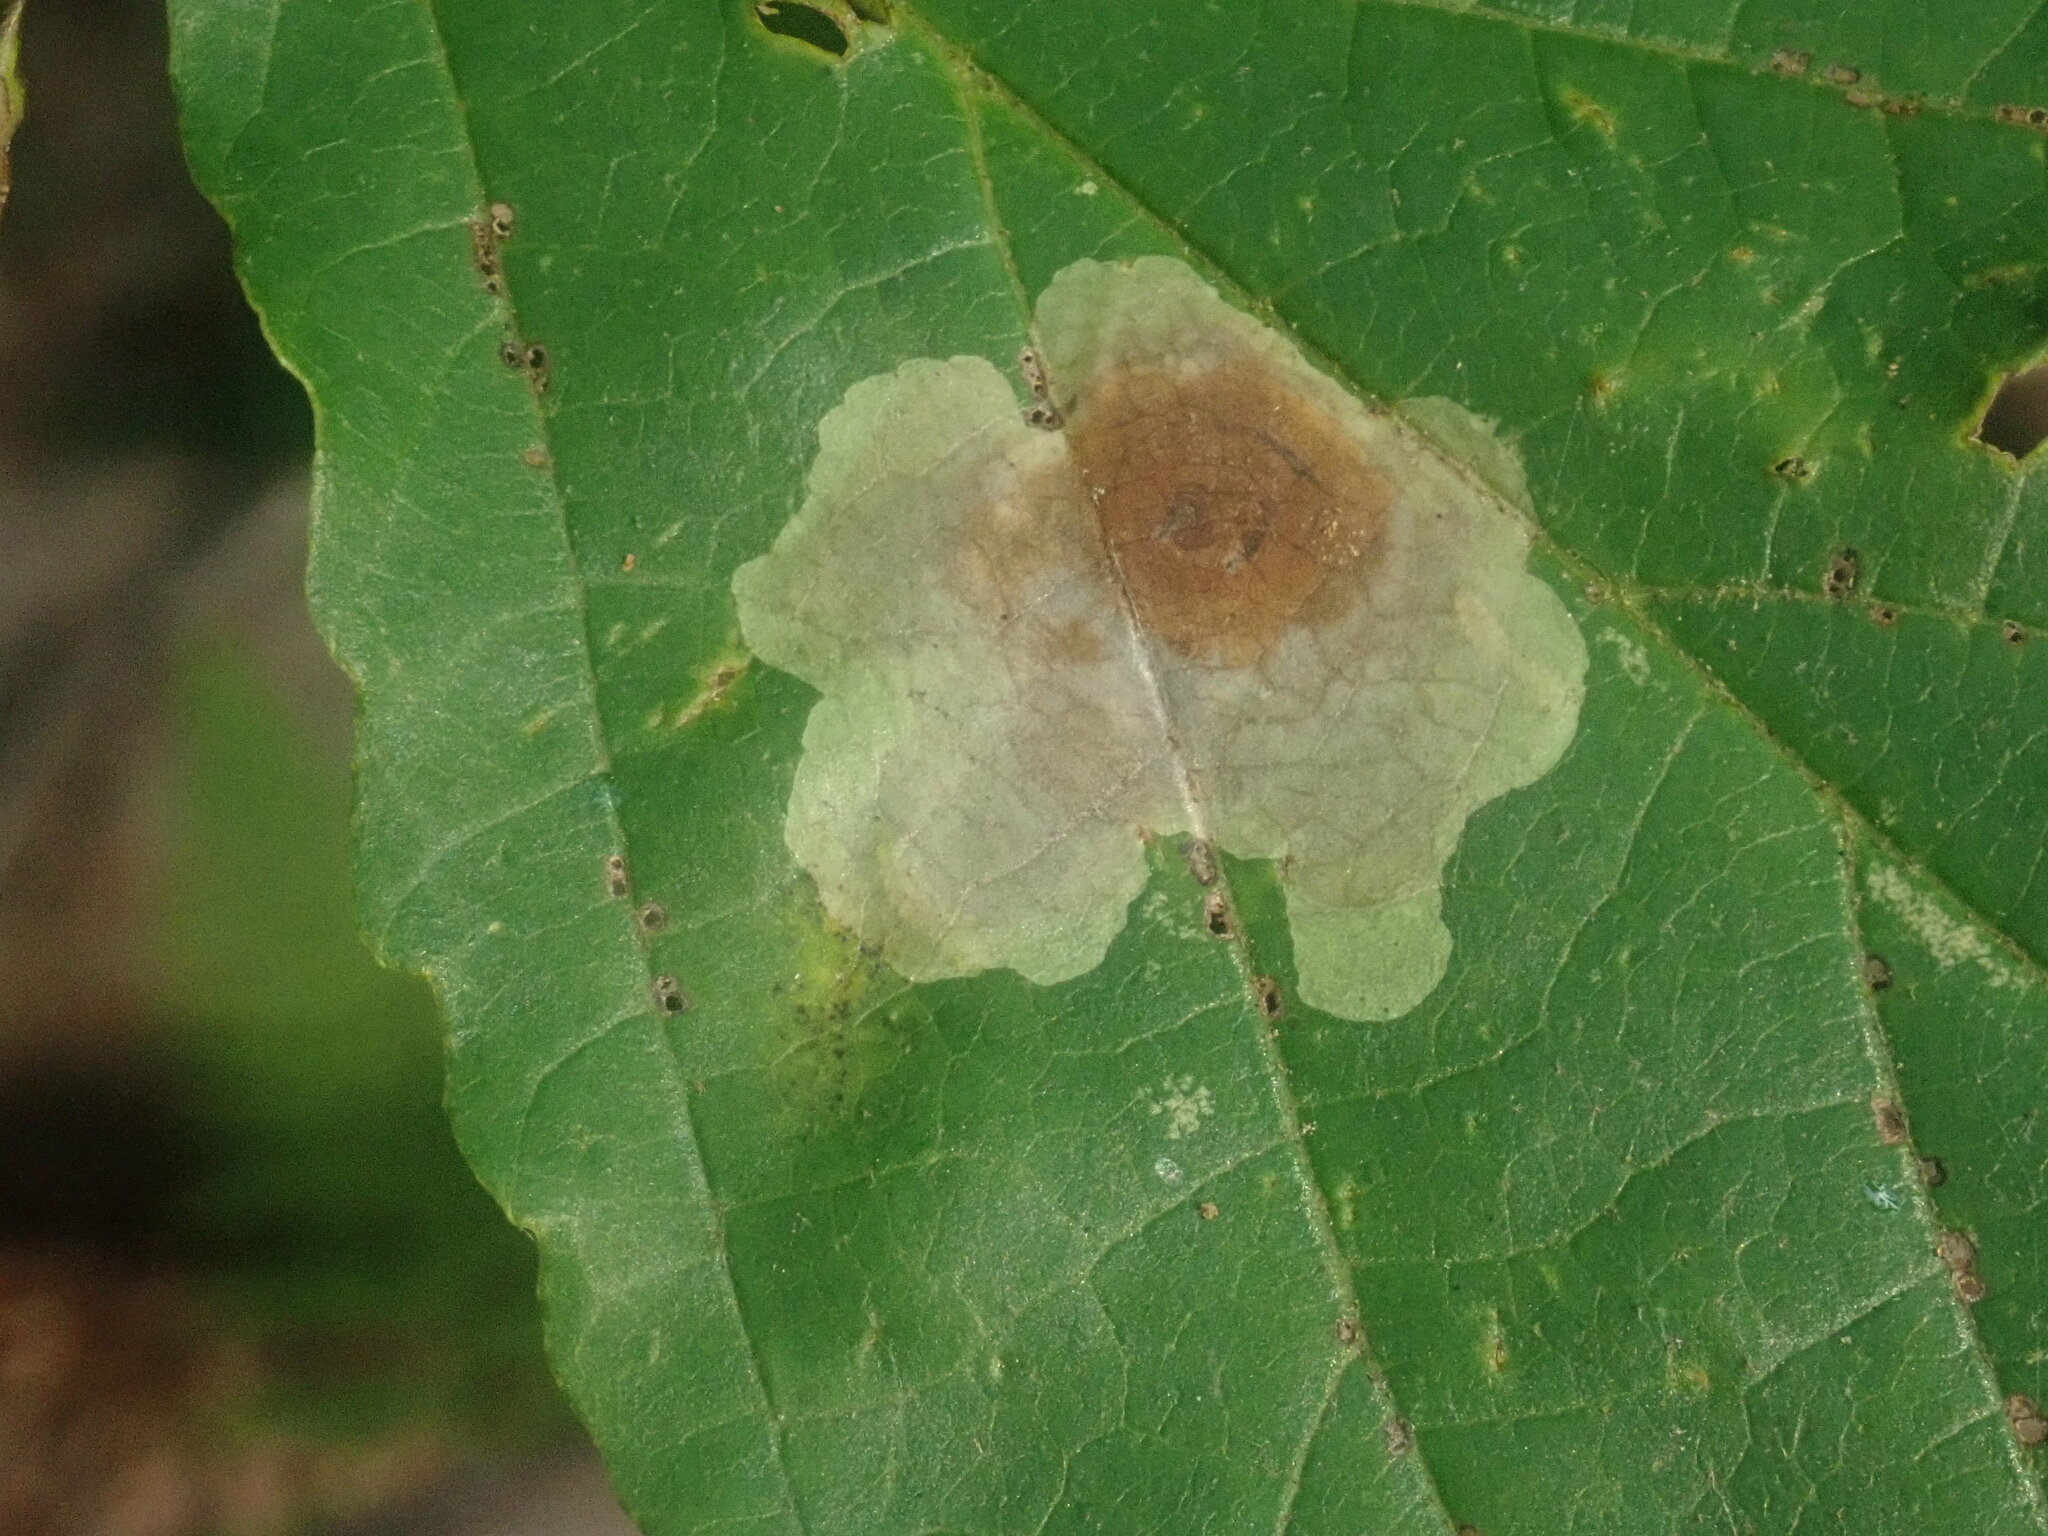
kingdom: Animalia
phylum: Arthropoda
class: Insecta
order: Lepidoptera
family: Gracillariidae
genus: Cameraria
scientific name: Cameraria hamameliella
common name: Witchhazel leafminer
